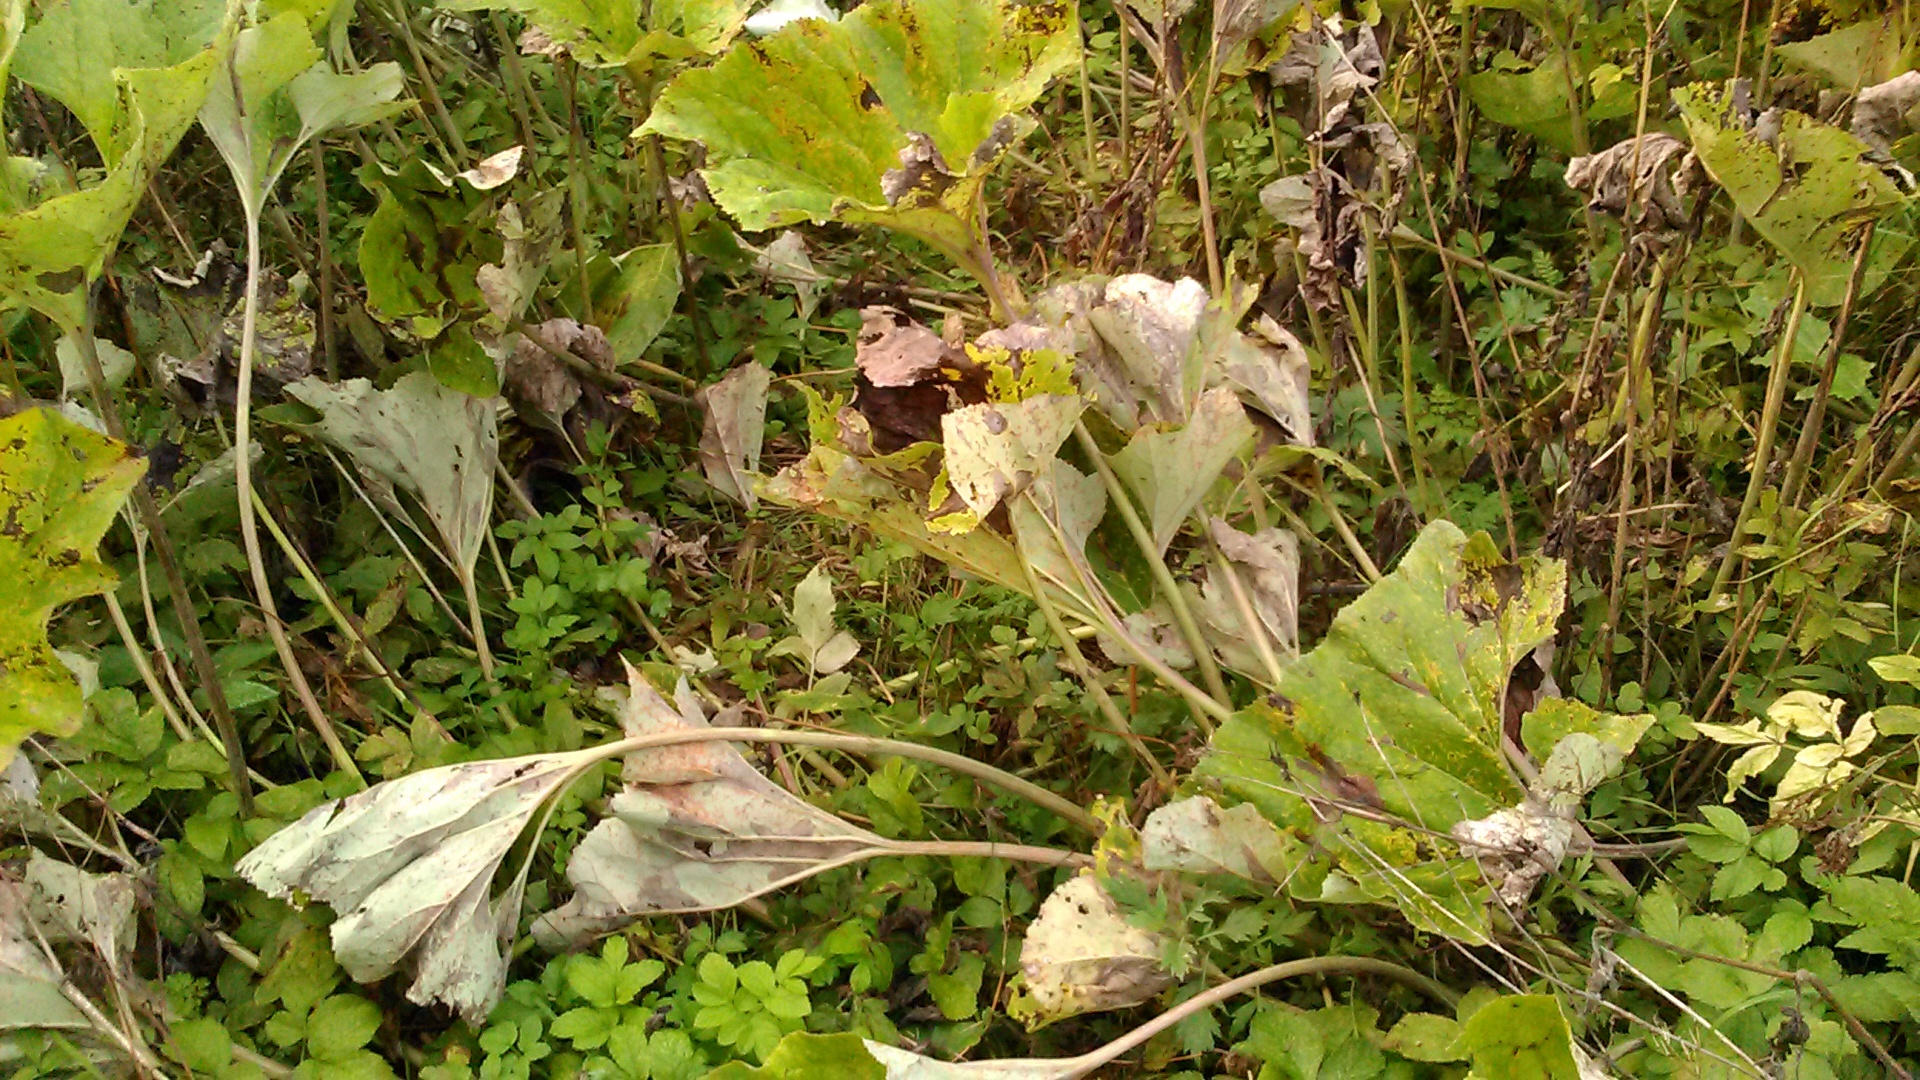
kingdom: Plantae
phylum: Tracheophyta
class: Magnoliopsida
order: Asterales
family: Asteraceae
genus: Petasites
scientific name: Petasites spurius
